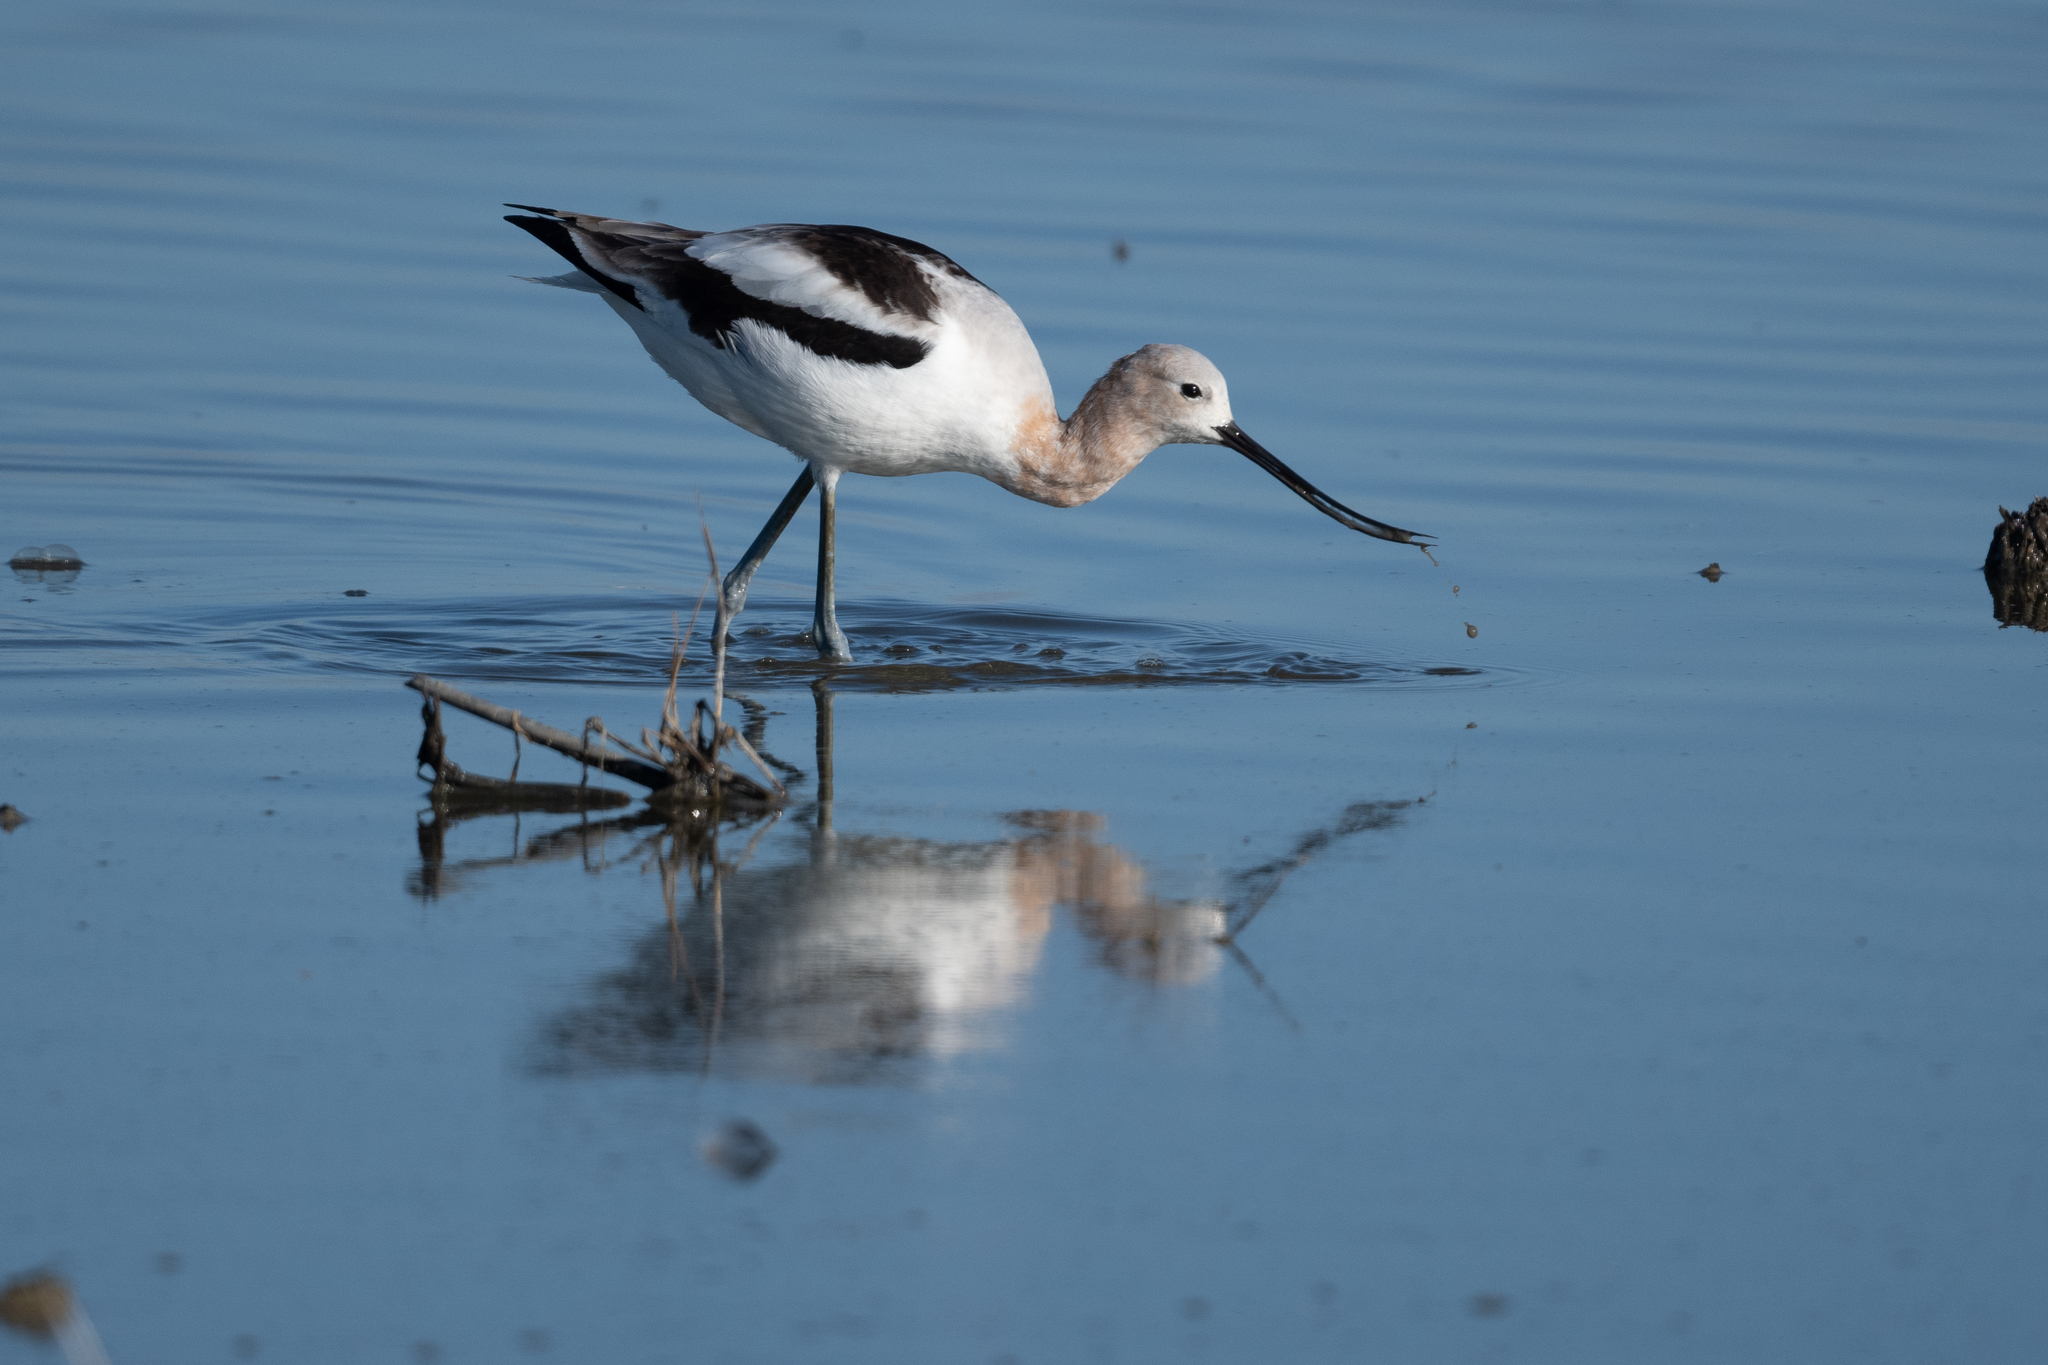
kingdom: Animalia
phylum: Chordata
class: Aves
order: Charadriiformes
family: Recurvirostridae
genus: Recurvirostra
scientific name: Recurvirostra americana
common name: American avocet
